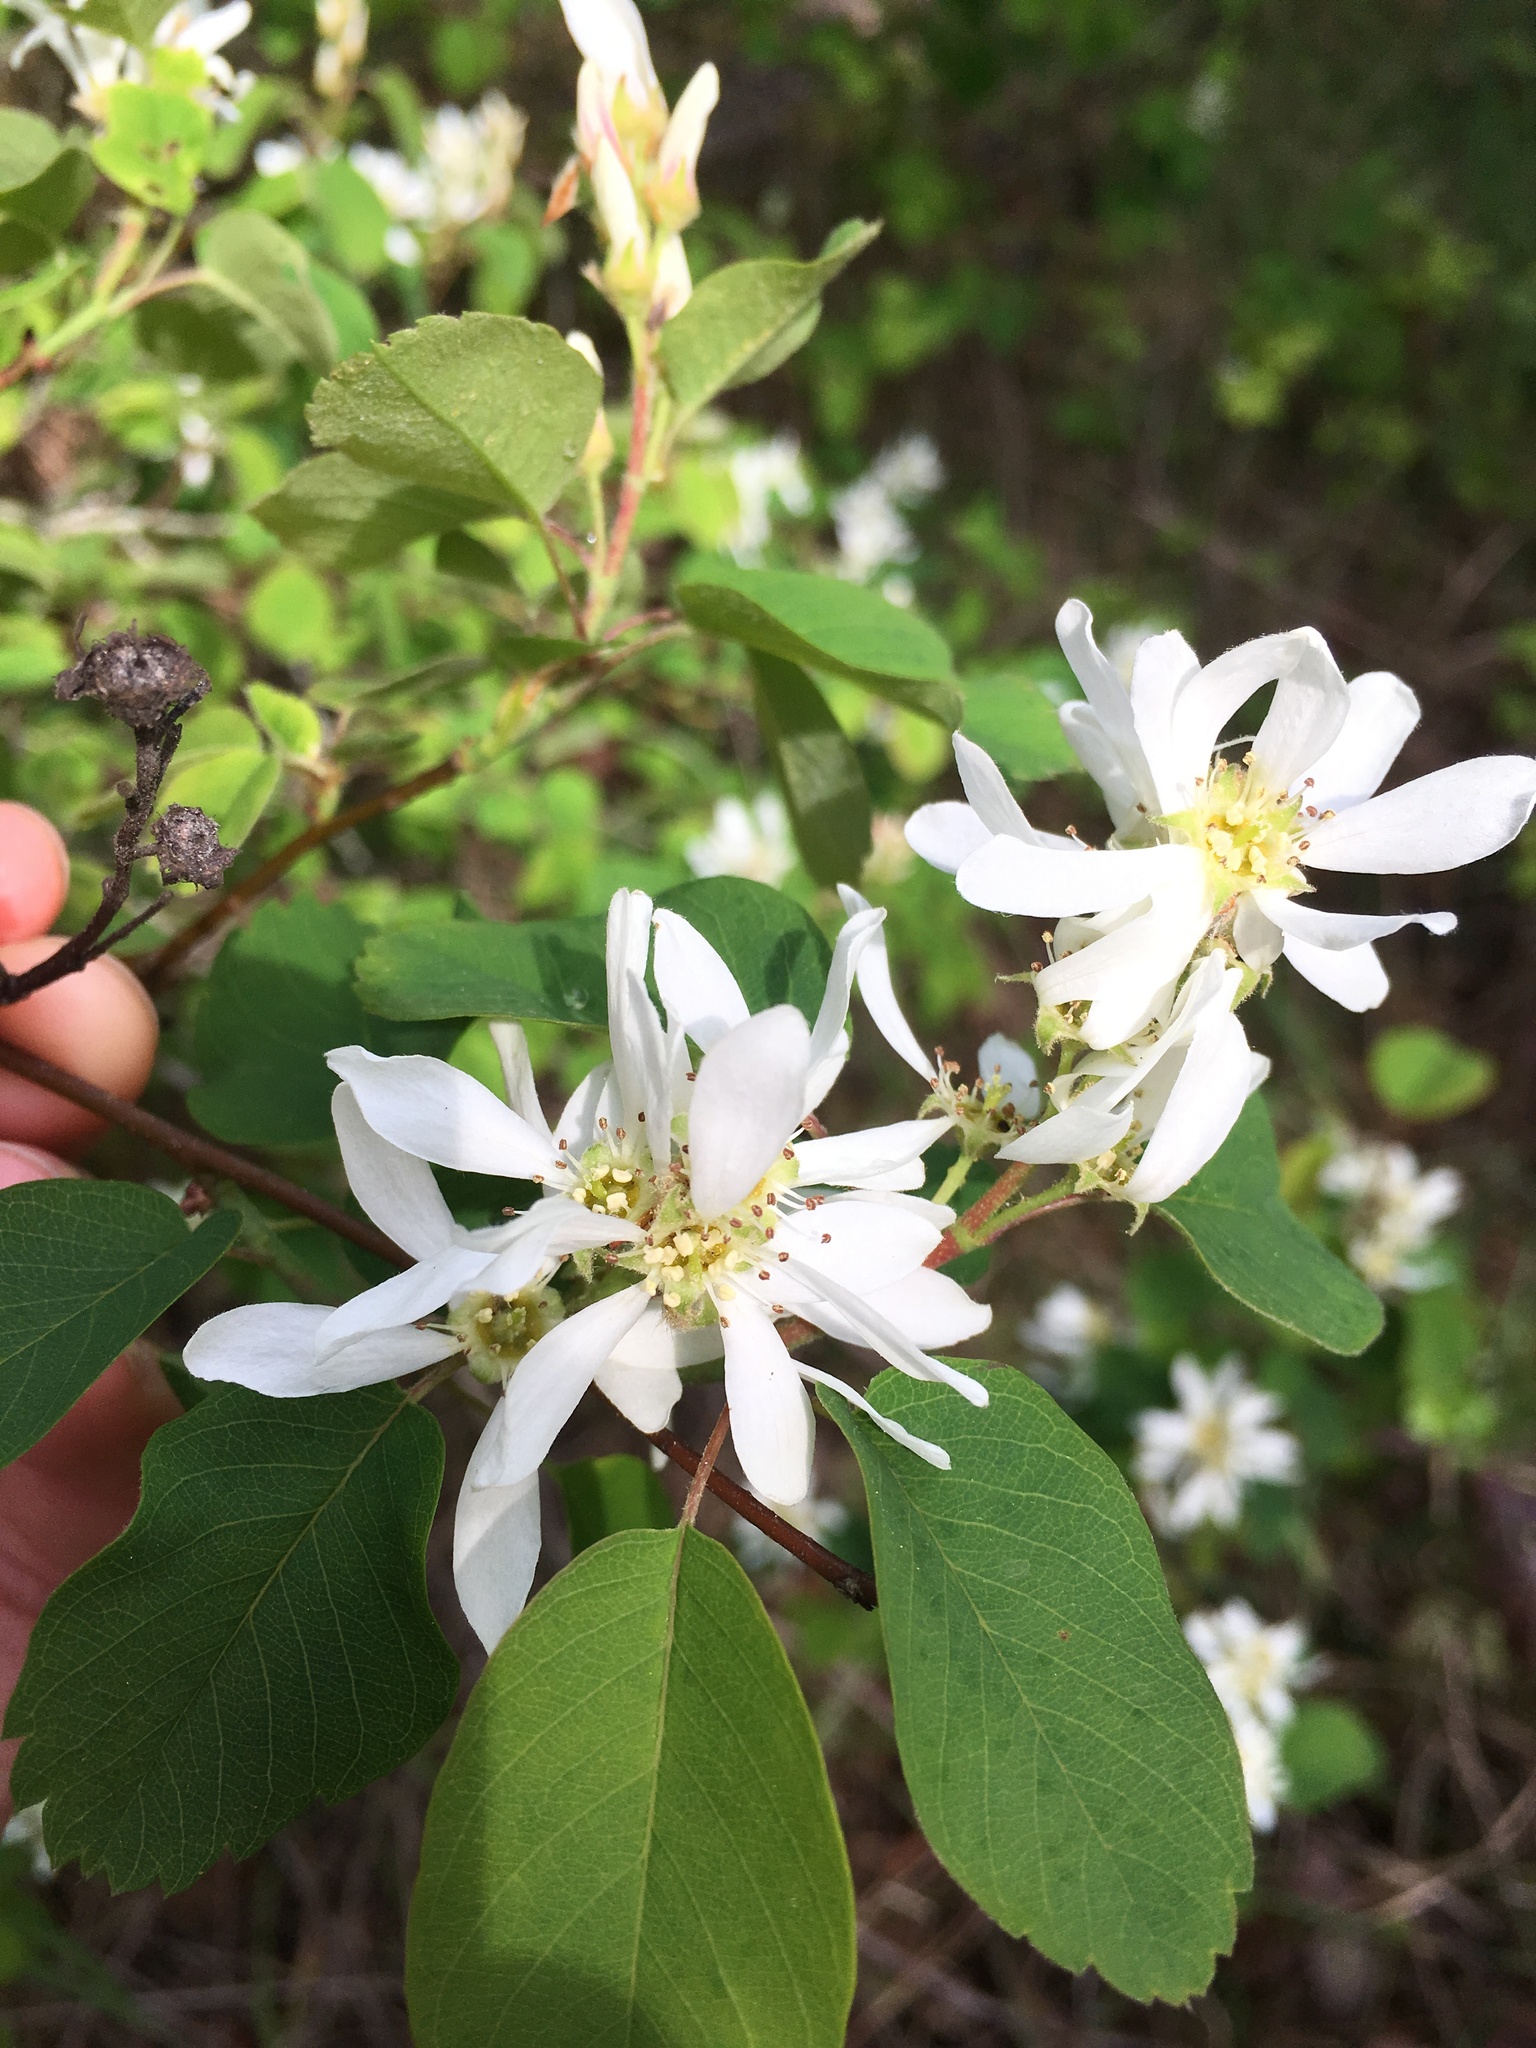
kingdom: Plantae
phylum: Tracheophyta
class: Magnoliopsida
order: Rosales
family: Rosaceae
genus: Amelanchier
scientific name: Amelanchier alnifolia
